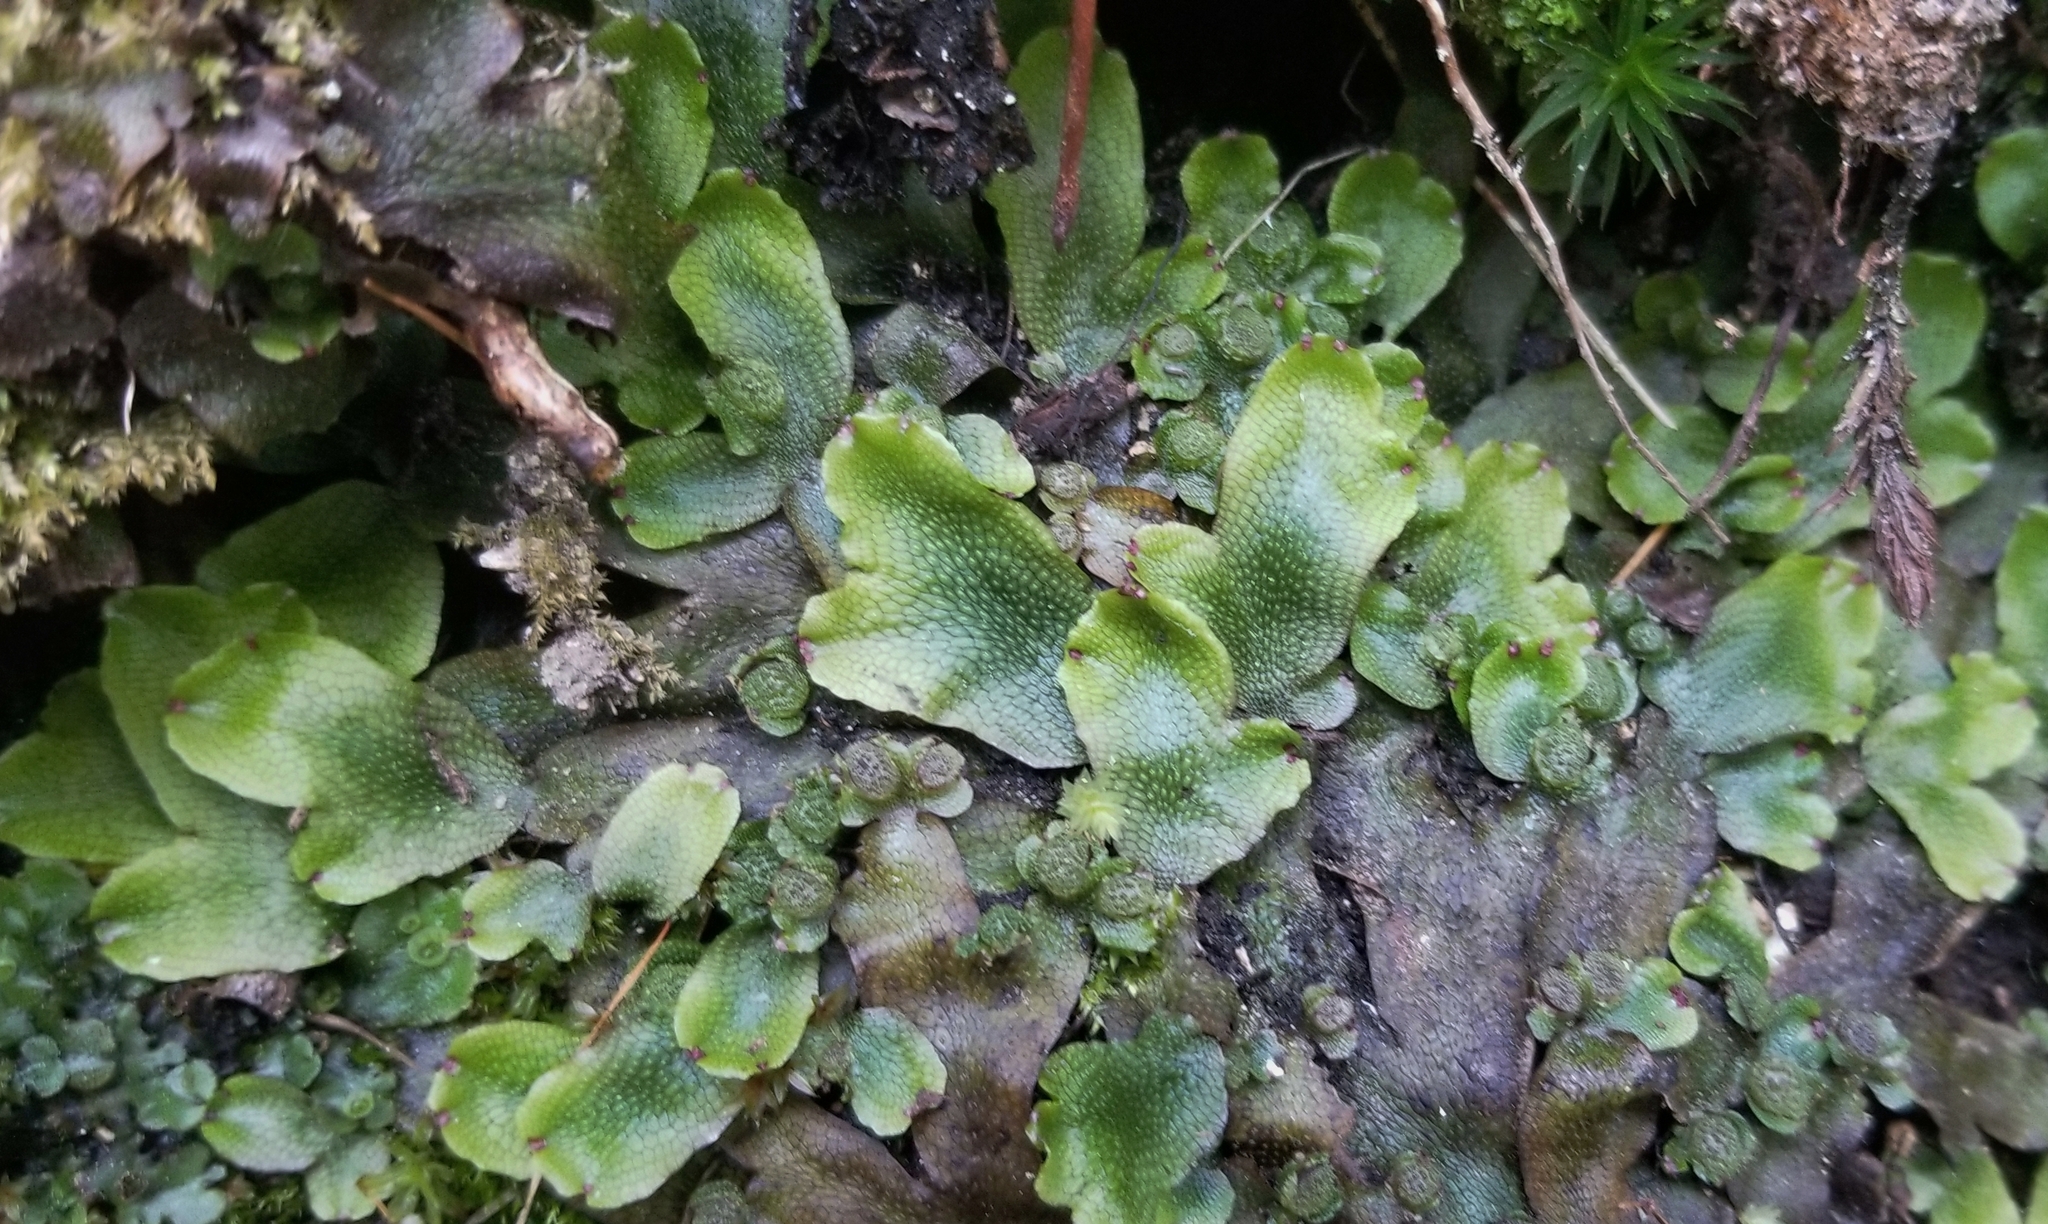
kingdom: Plantae
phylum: Marchantiophyta
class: Marchantiopsida
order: Marchantiales
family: Conocephalaceae
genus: Conocephalum
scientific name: Conocephalum salebrosum
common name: Cat-tongue liverwort
